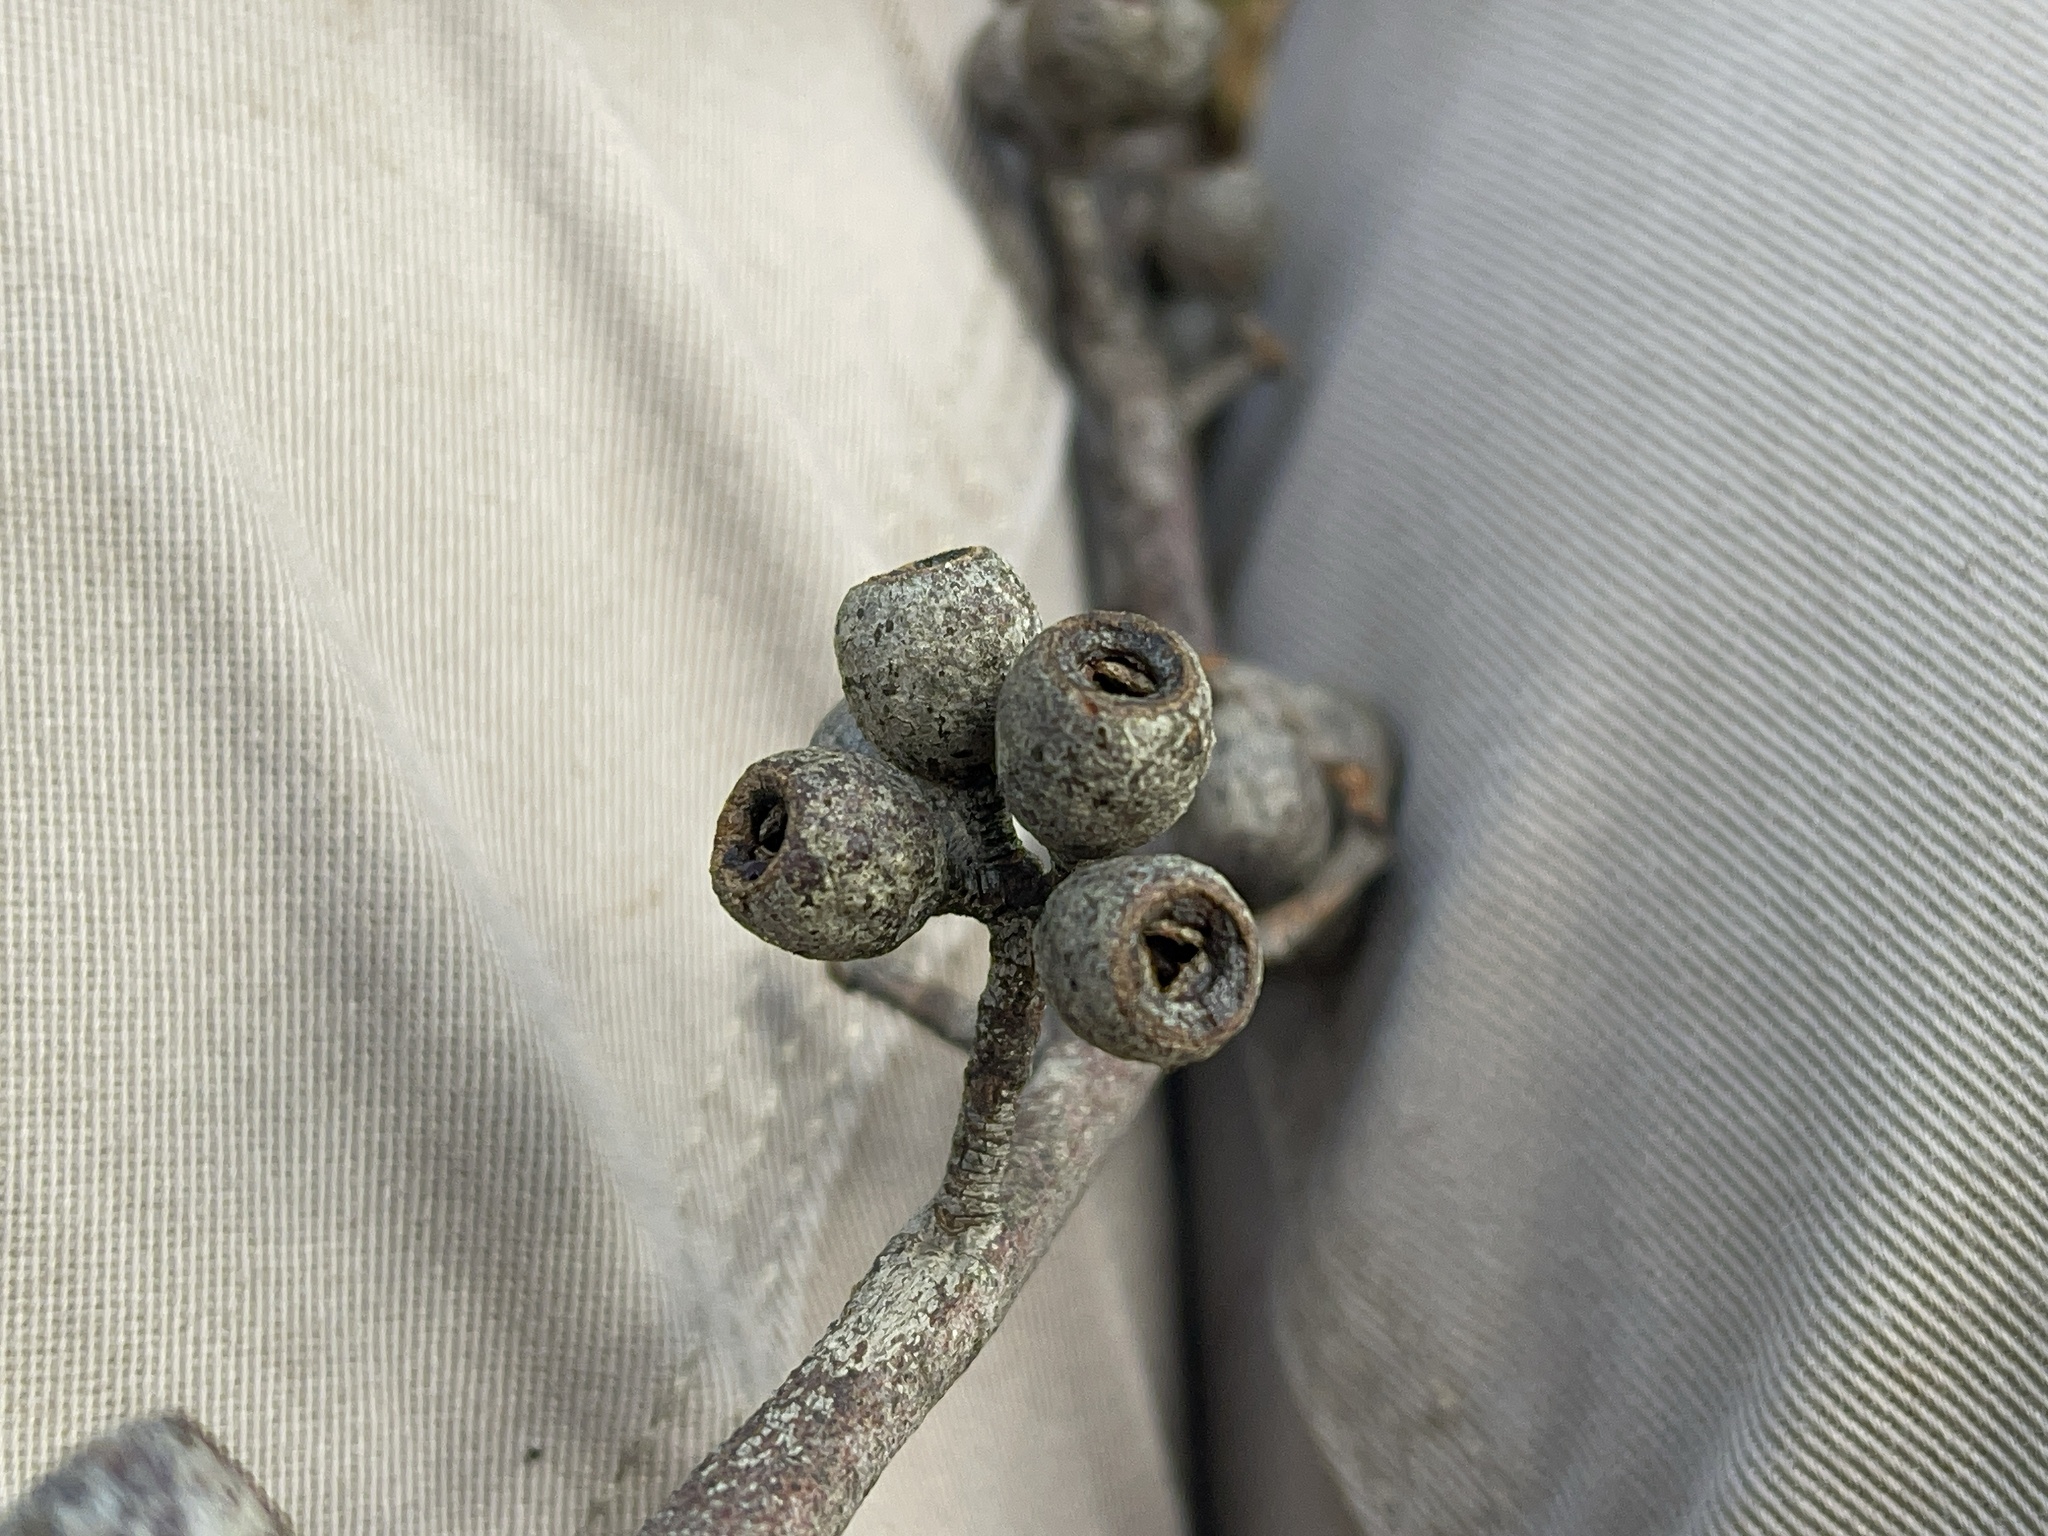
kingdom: Plantae
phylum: Tracheophyta
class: Magnoliopsida
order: Myrtales
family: Myrtaceae
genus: Eucalyptus
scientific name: Eucalyptus obliqua
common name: Messmate stringybark
